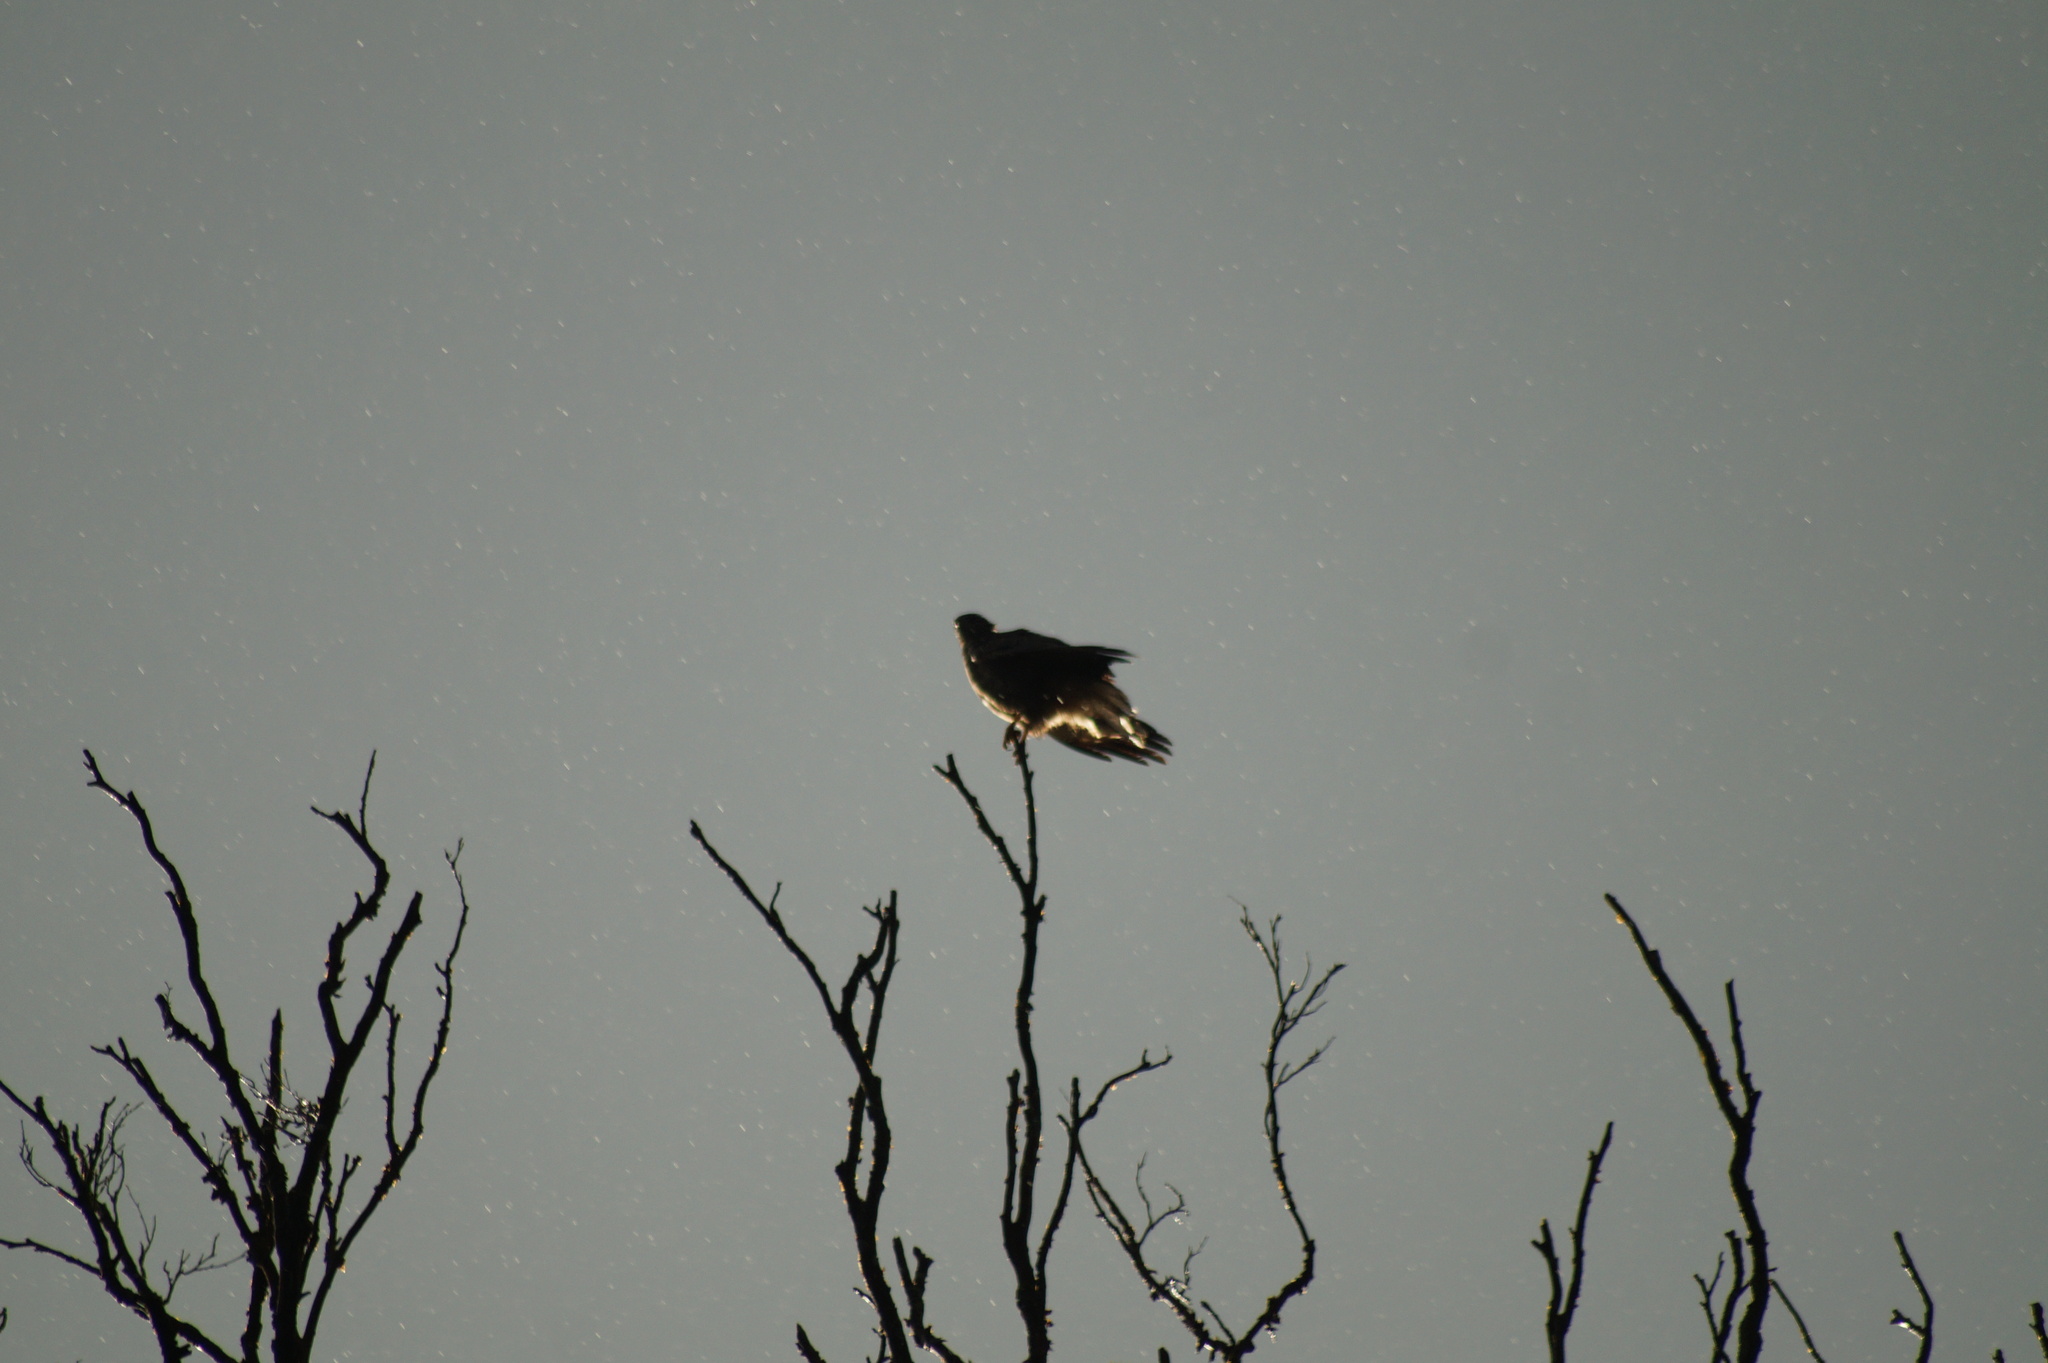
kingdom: Animalia
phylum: Chordata
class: Aves
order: Accipitriformes
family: Accipitridae
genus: Buteo
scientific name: Buteo buteo
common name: Common buzzard
